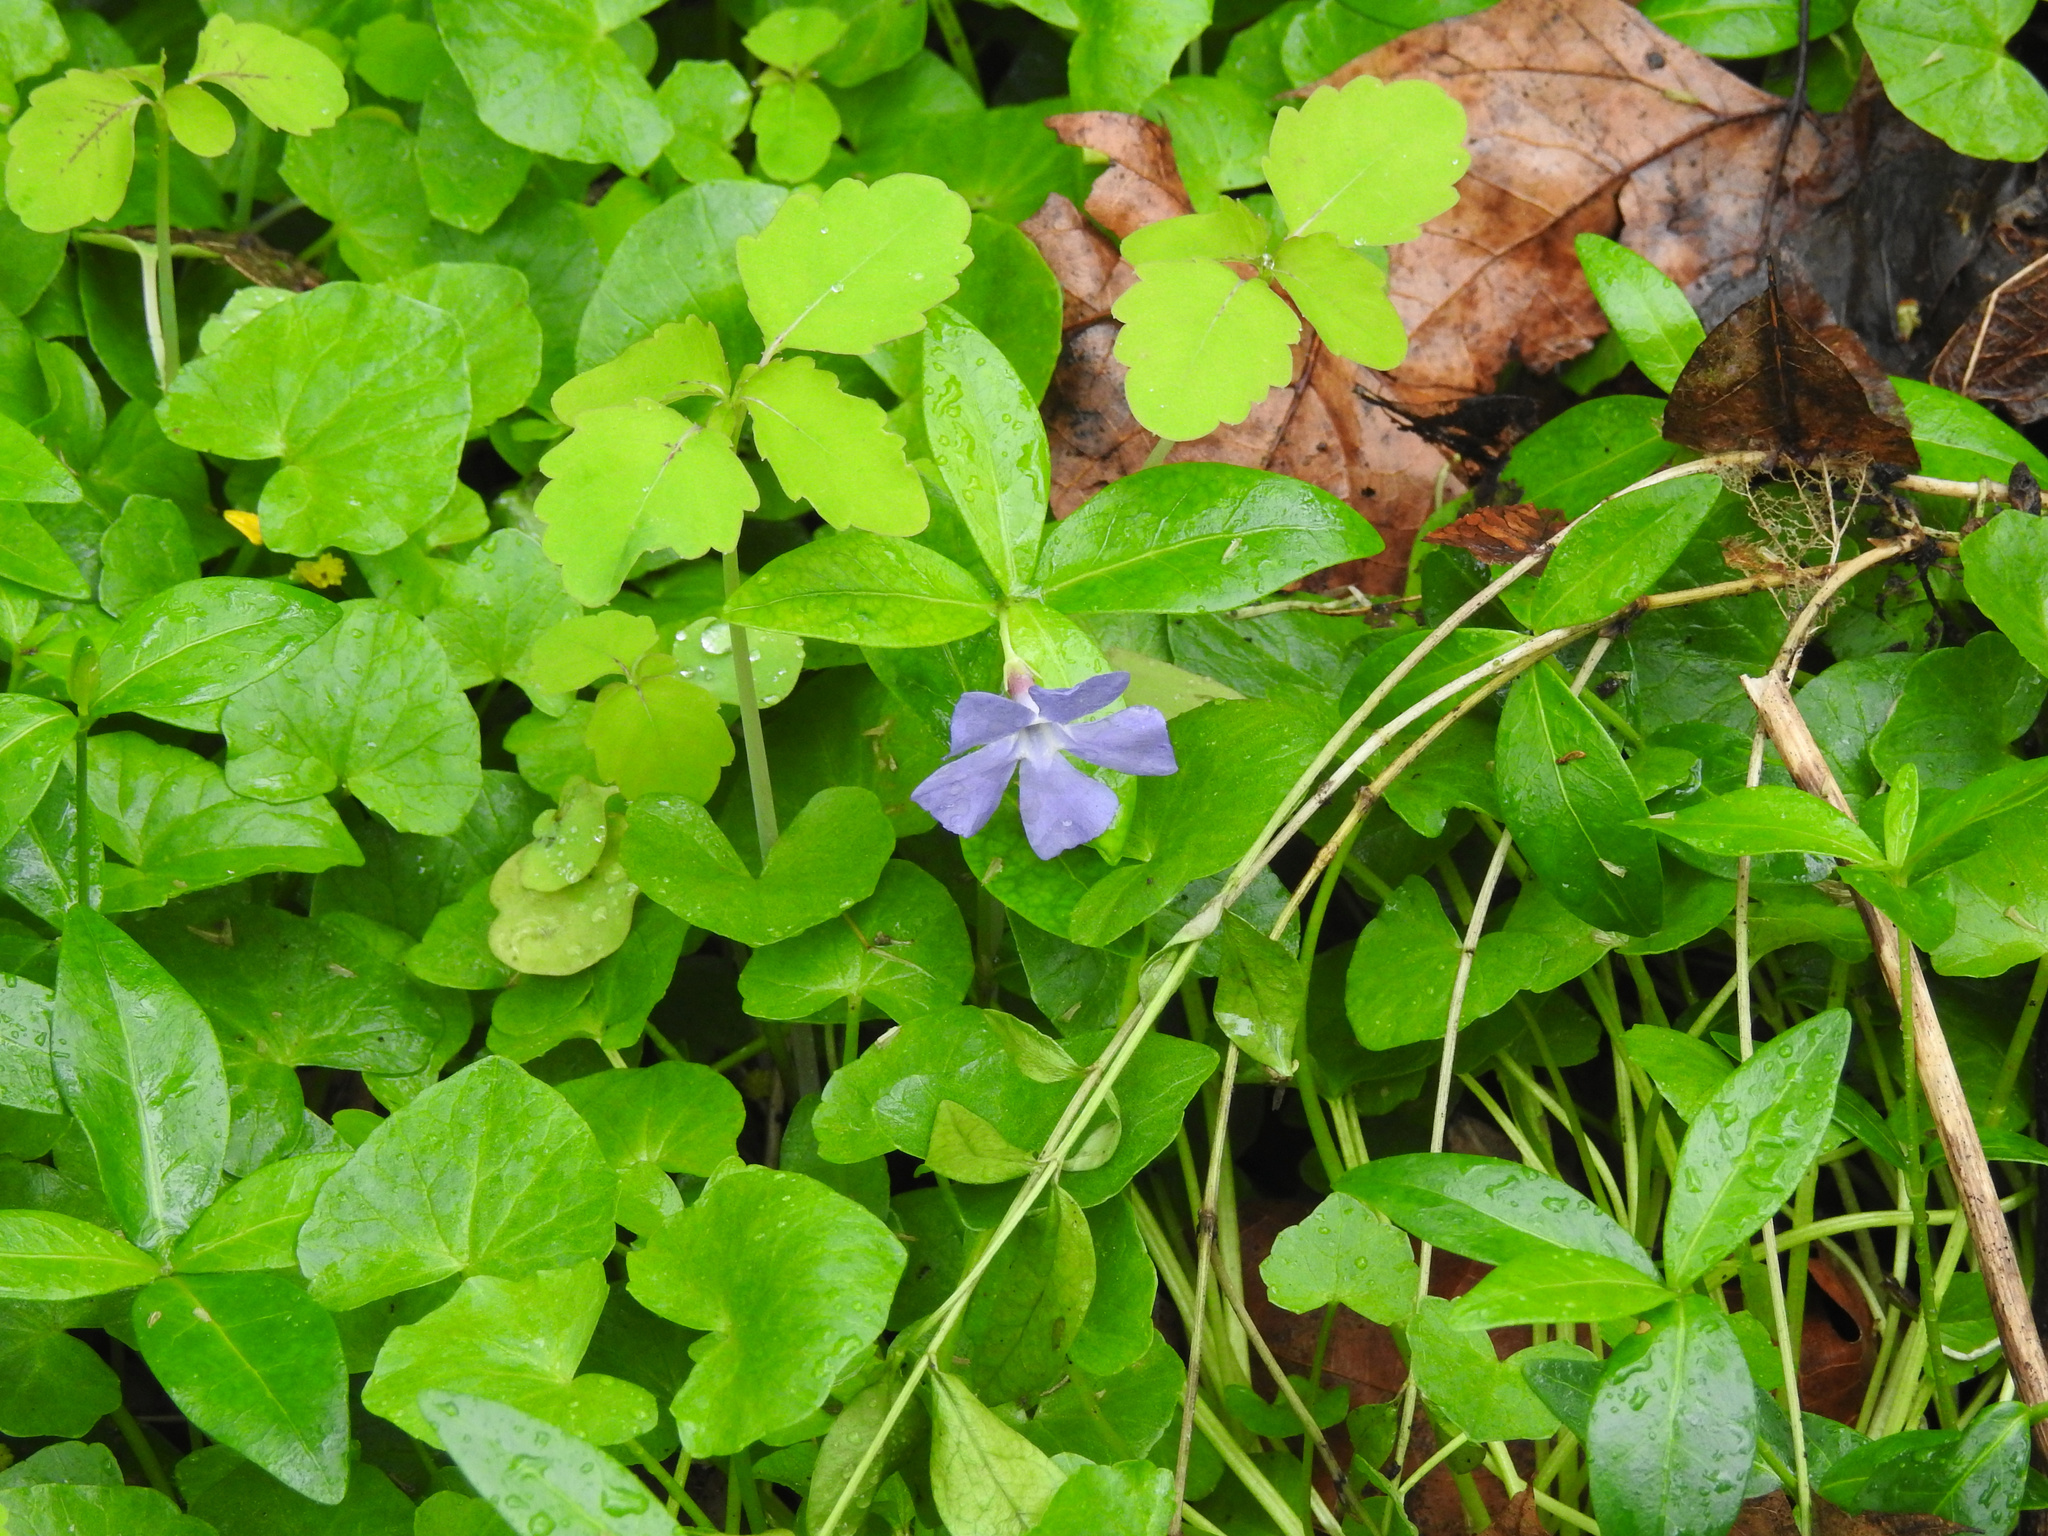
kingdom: Plantae
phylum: Tracheophyta
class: Magnoliopsida
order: Gentianales
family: Apocynaceae
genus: Vinca
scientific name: Vinca minor
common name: Lesser periwinkle
